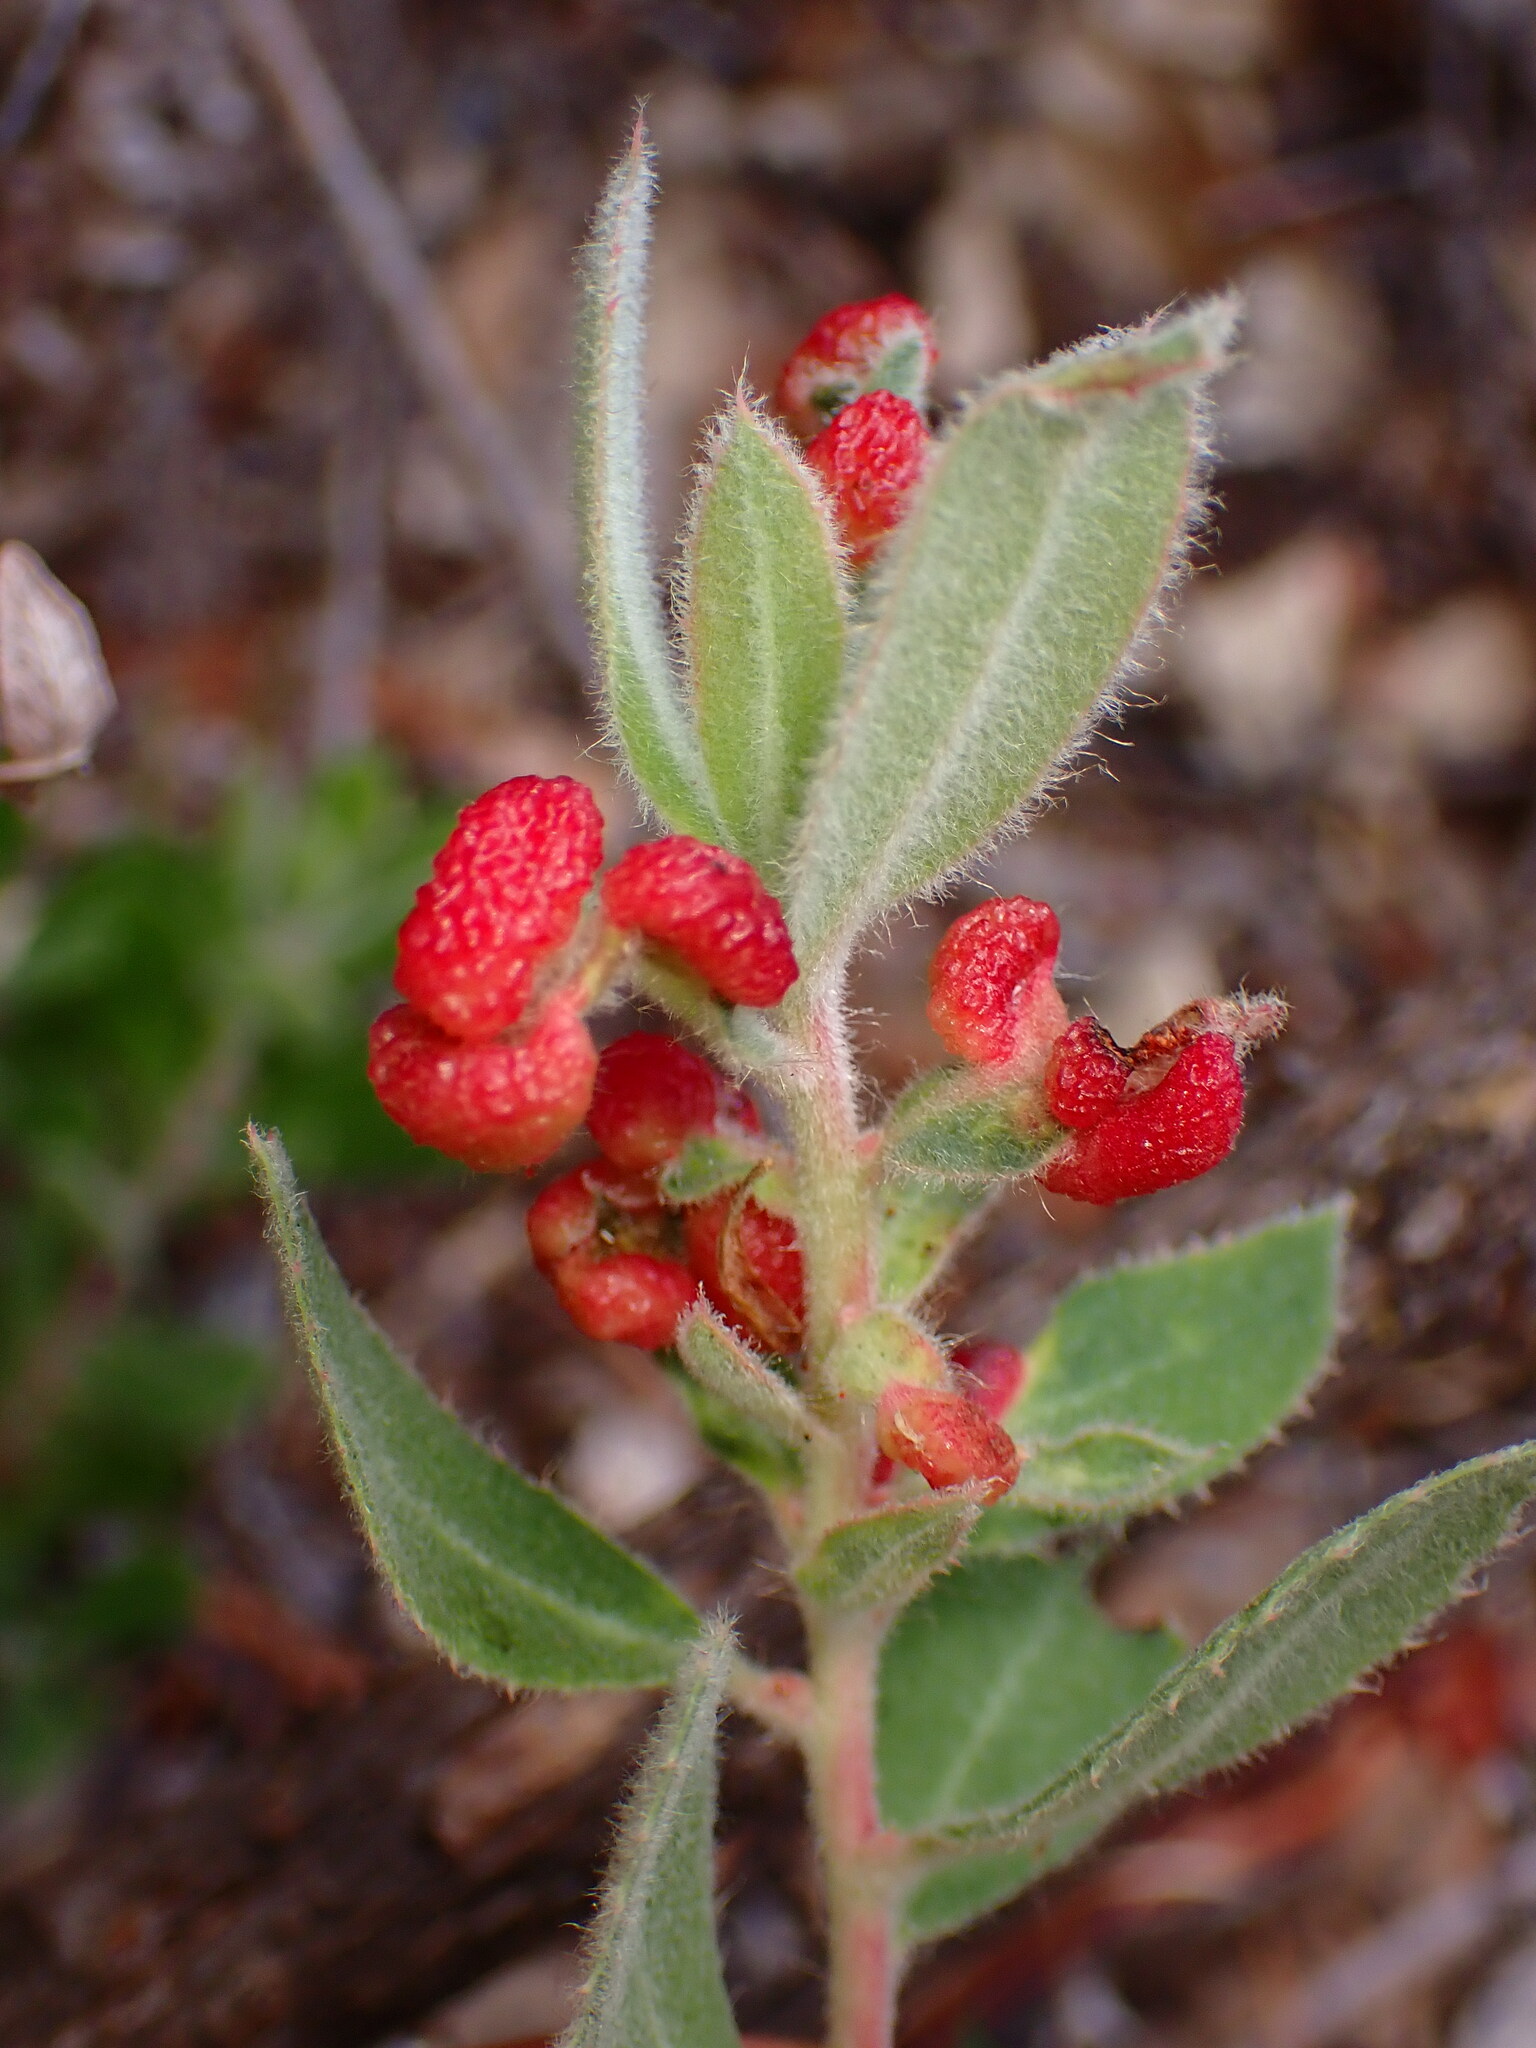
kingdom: Animalia
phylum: Arthropoda
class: Insecta
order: Hemiptera
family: Aphididae
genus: Tamalia
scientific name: Tamalia coweni
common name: Manzanita leafgall aphid
